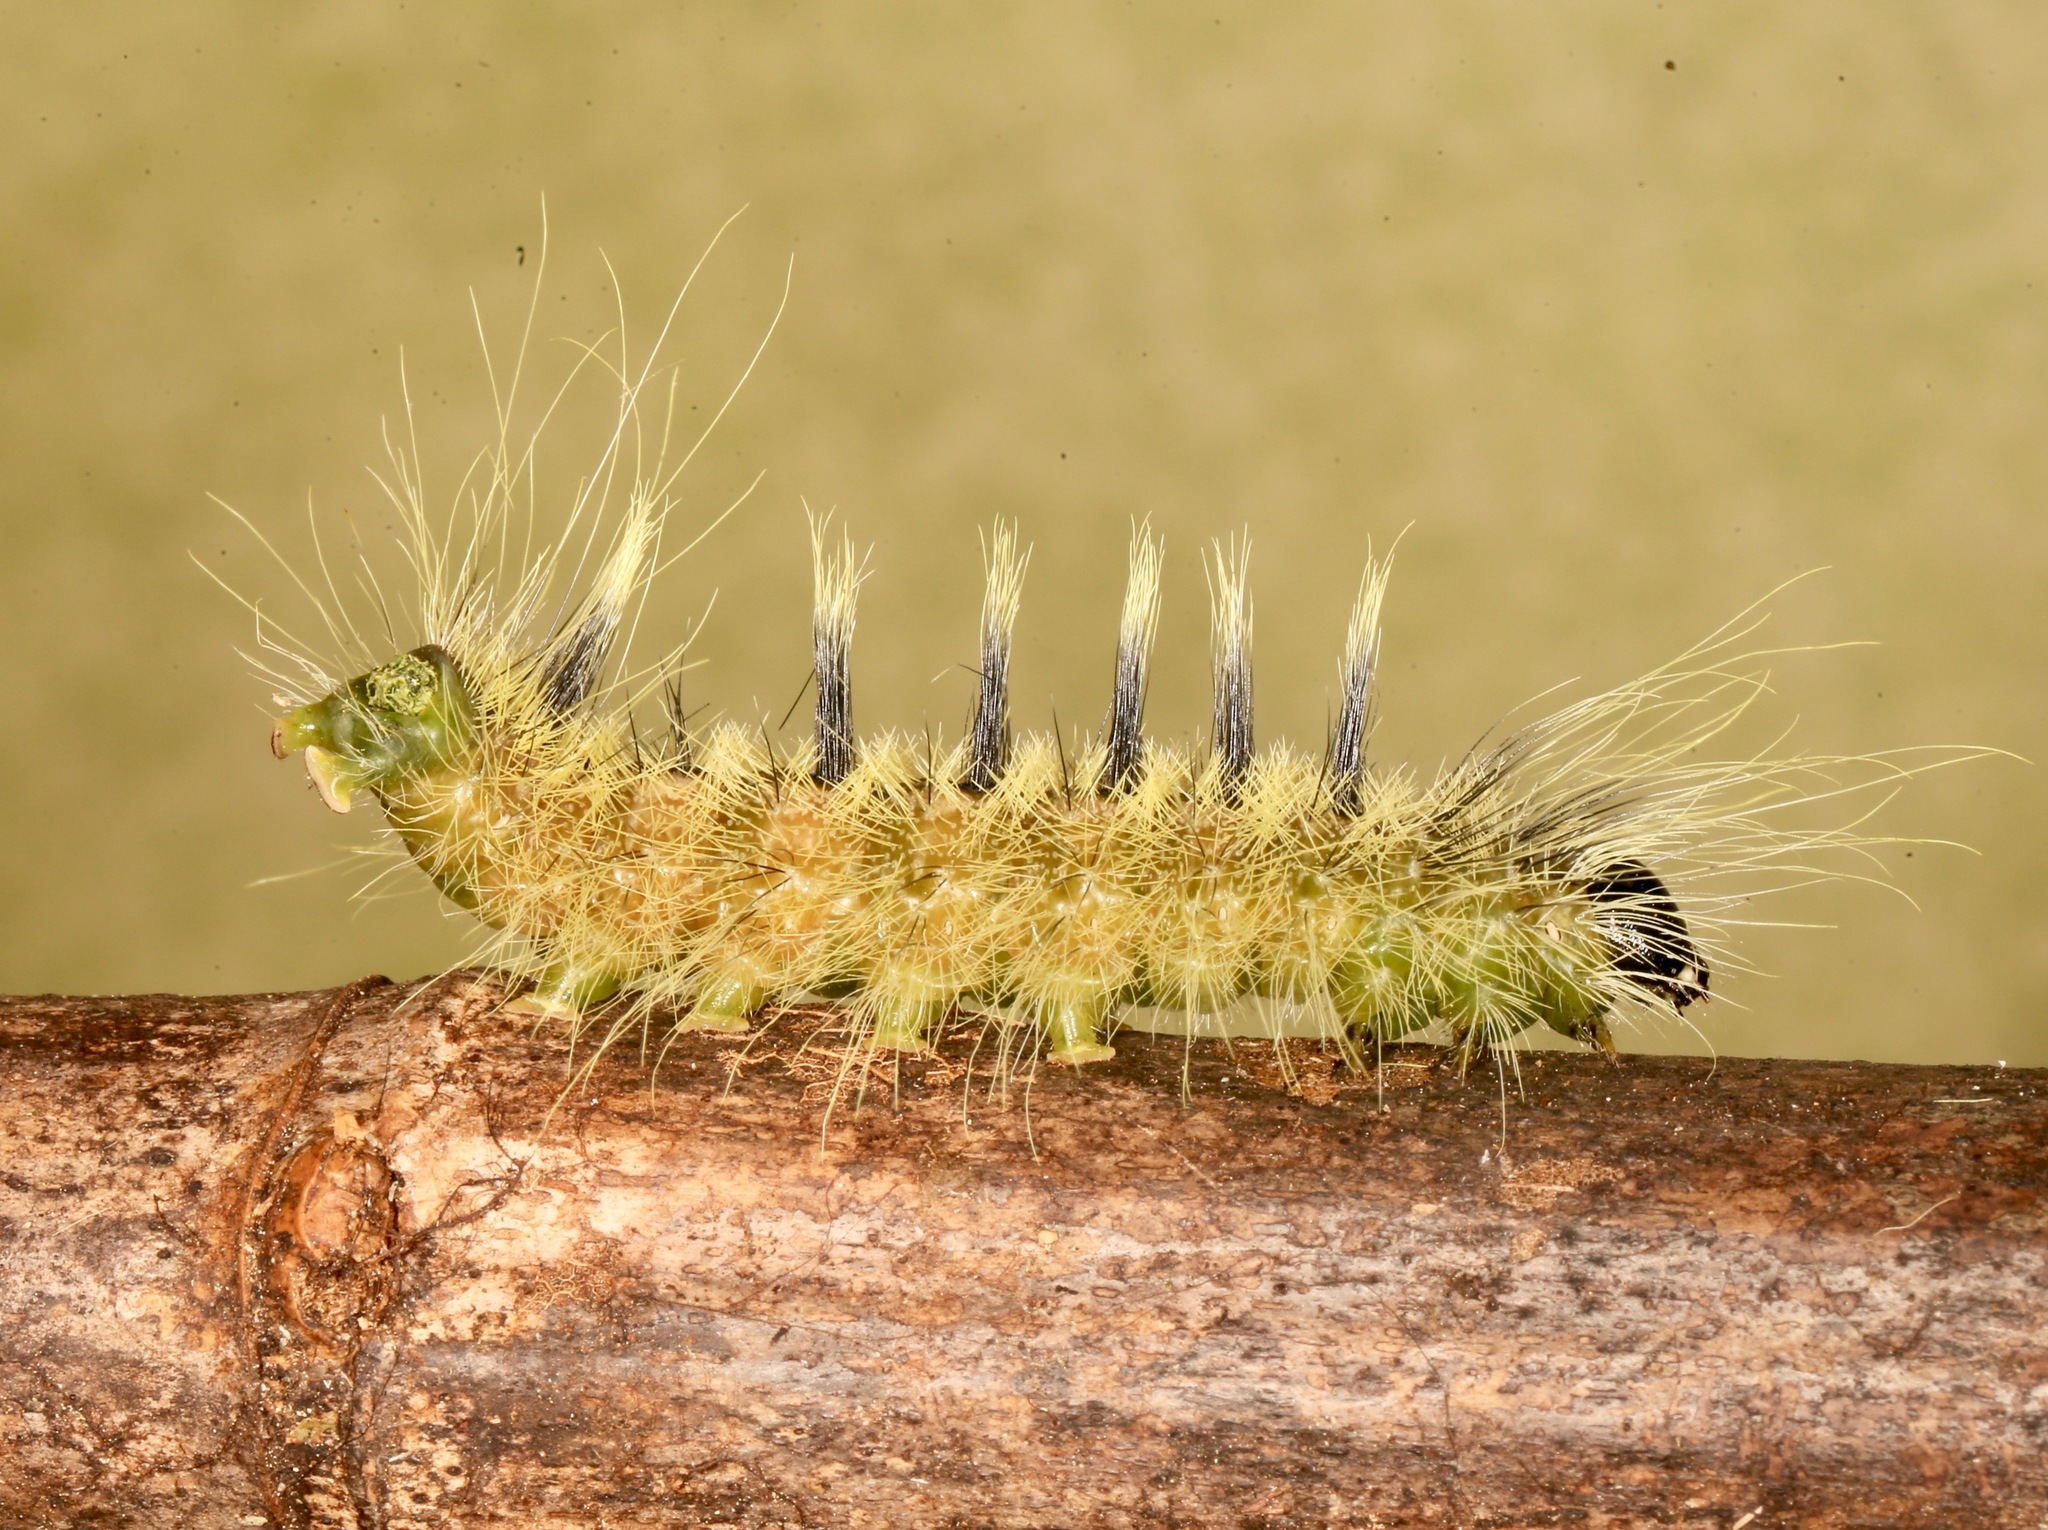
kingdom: Animalia
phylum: Arthropoda
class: Insecta
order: Lepidoptera
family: Noctuidae
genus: Acronicta
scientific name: Acronicta rubricoma
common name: Hackberry dagger
